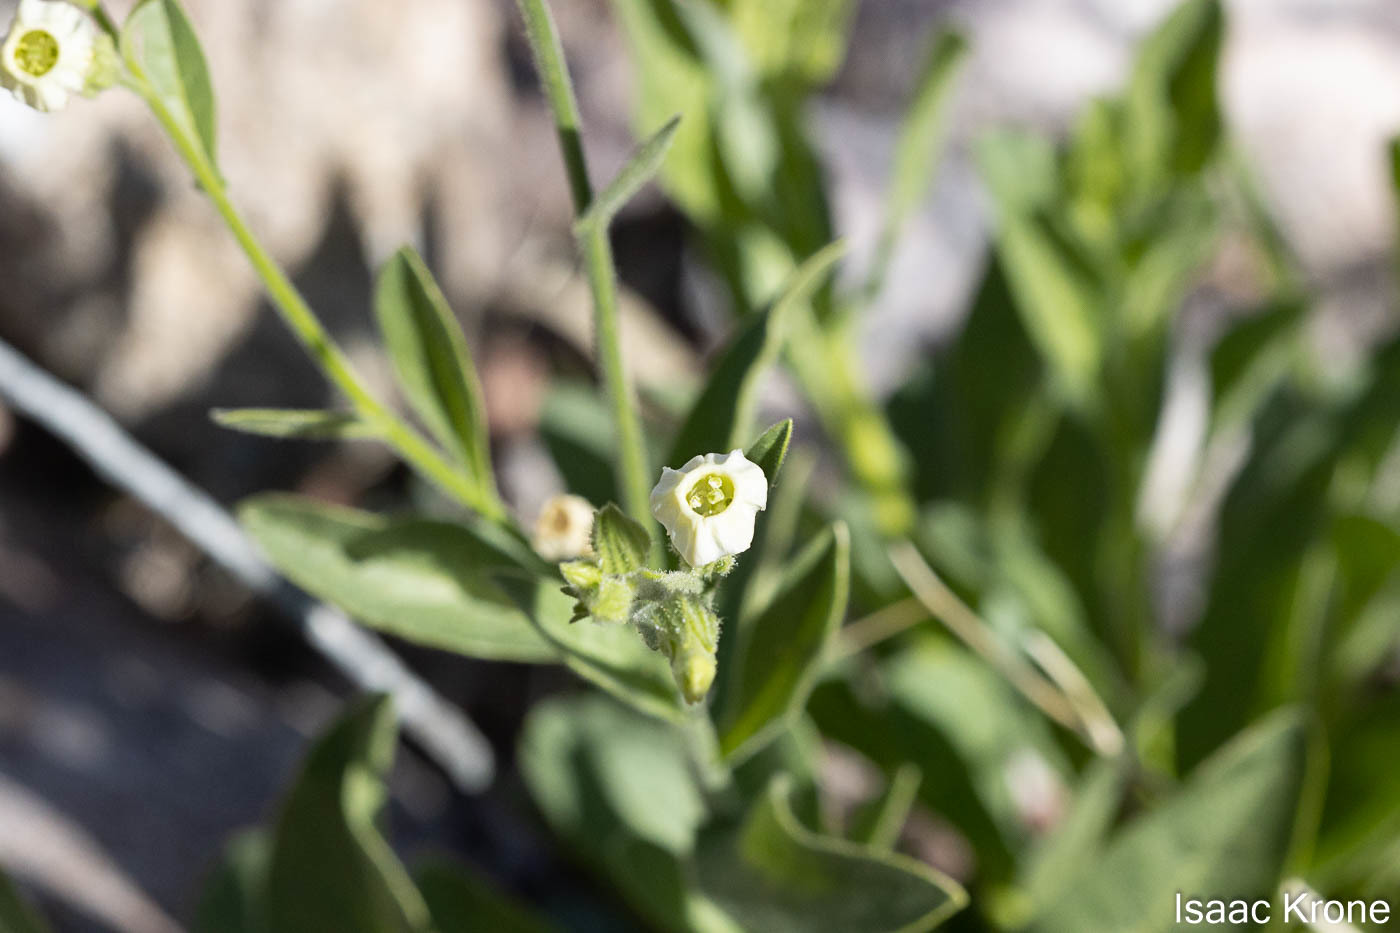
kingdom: Plantae
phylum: Tracheophyta
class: Magnoliopsida
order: Solanales
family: Solanaceae
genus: Nicotiana
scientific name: Nicotiana obtusifolia
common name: Desert tobacco
